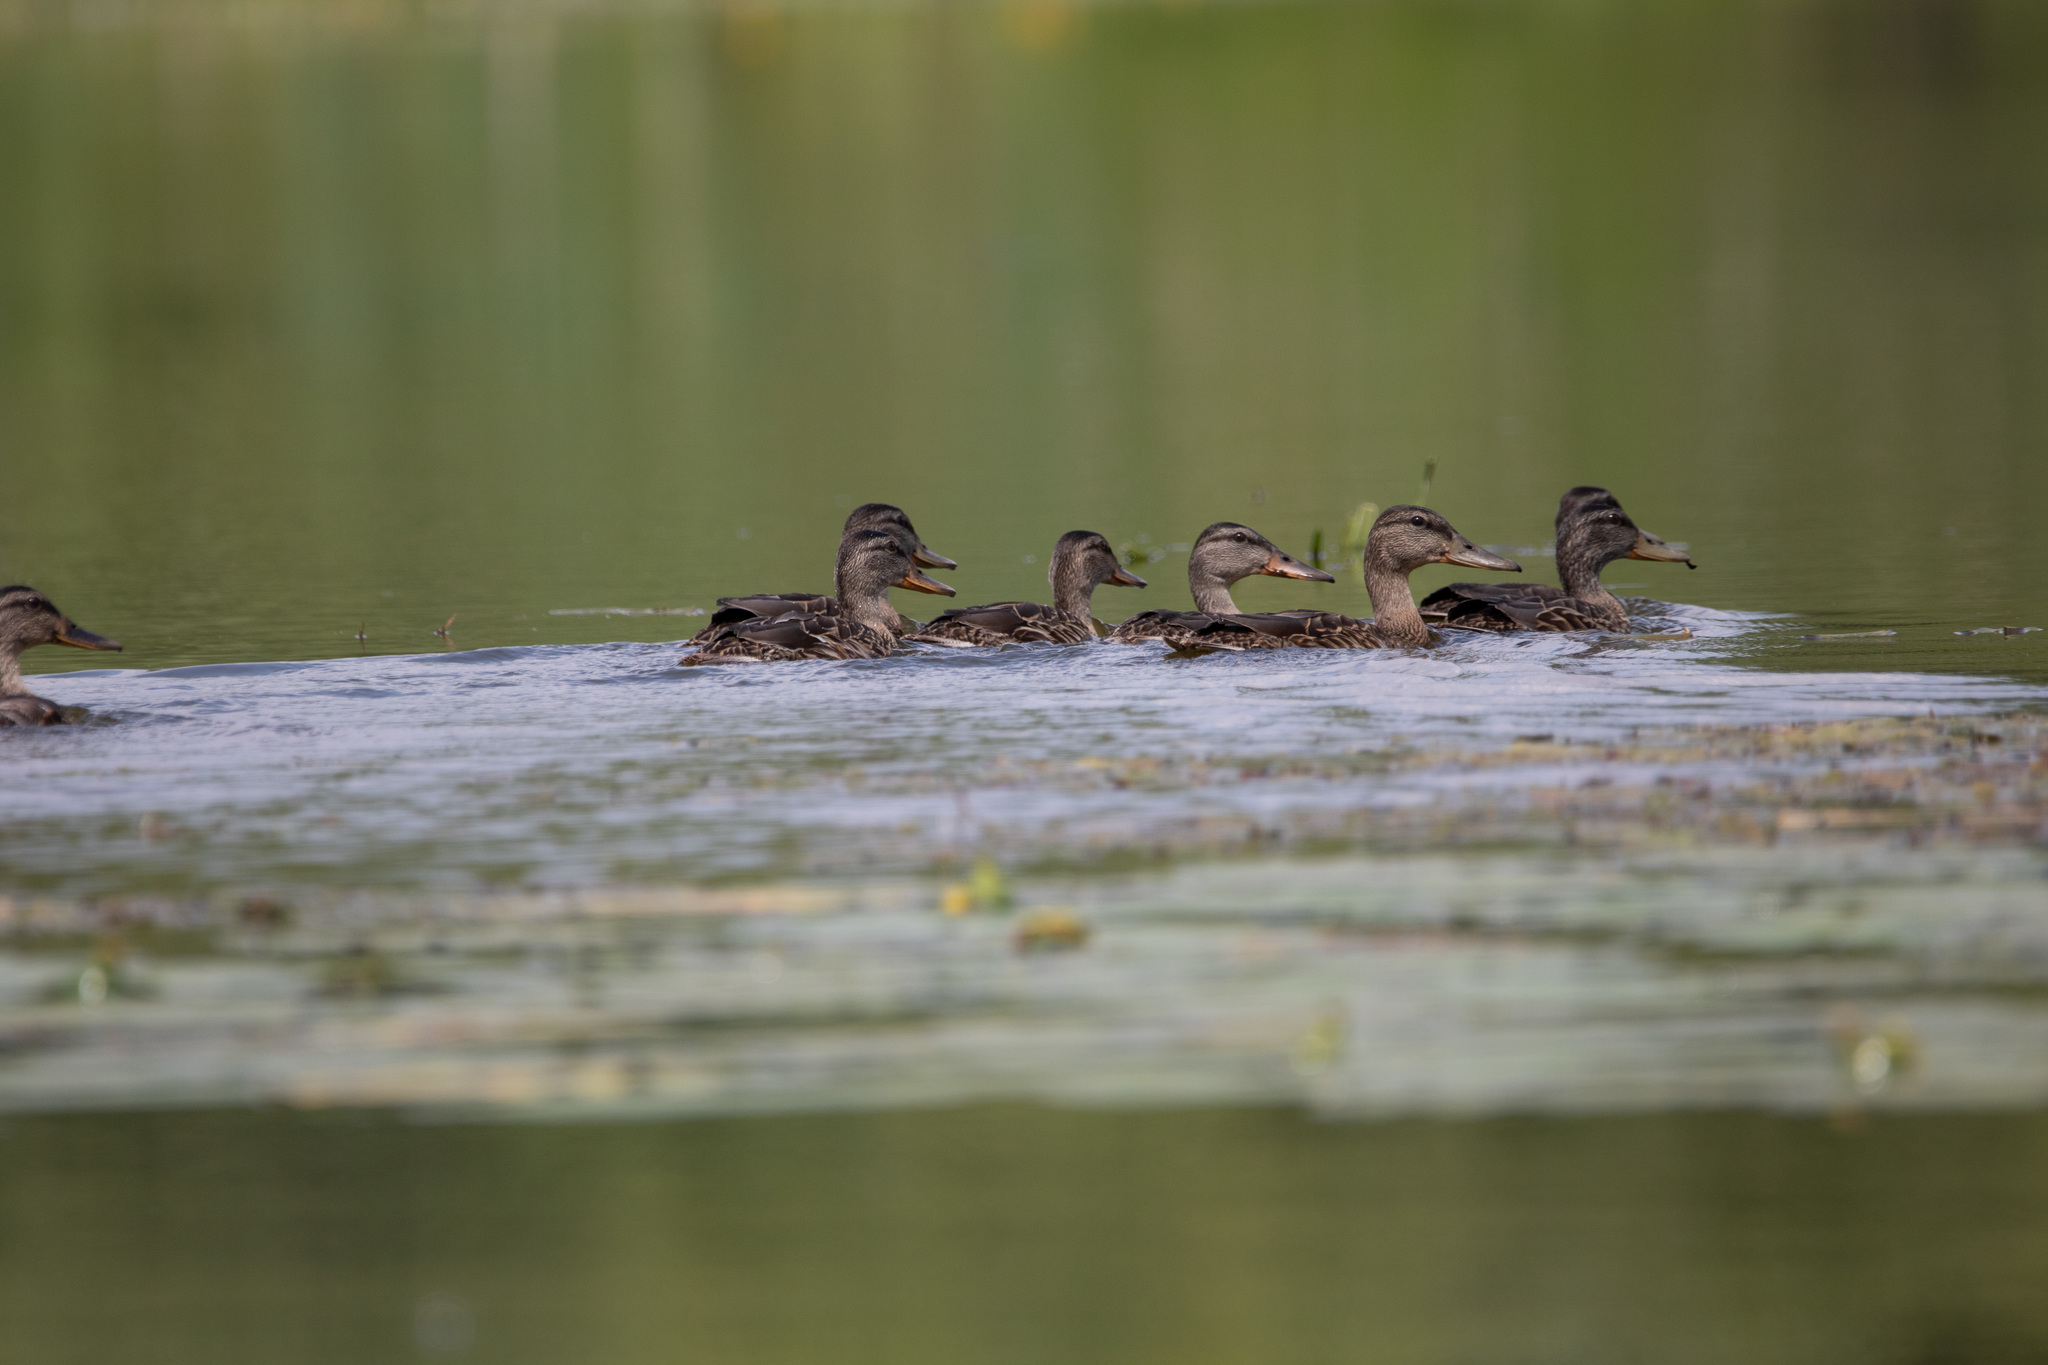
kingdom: Animalia
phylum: Chordata
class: Aves
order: Anseriformes
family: Anatidae
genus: Anas
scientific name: Anas platyrhynchos
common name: Mallard
